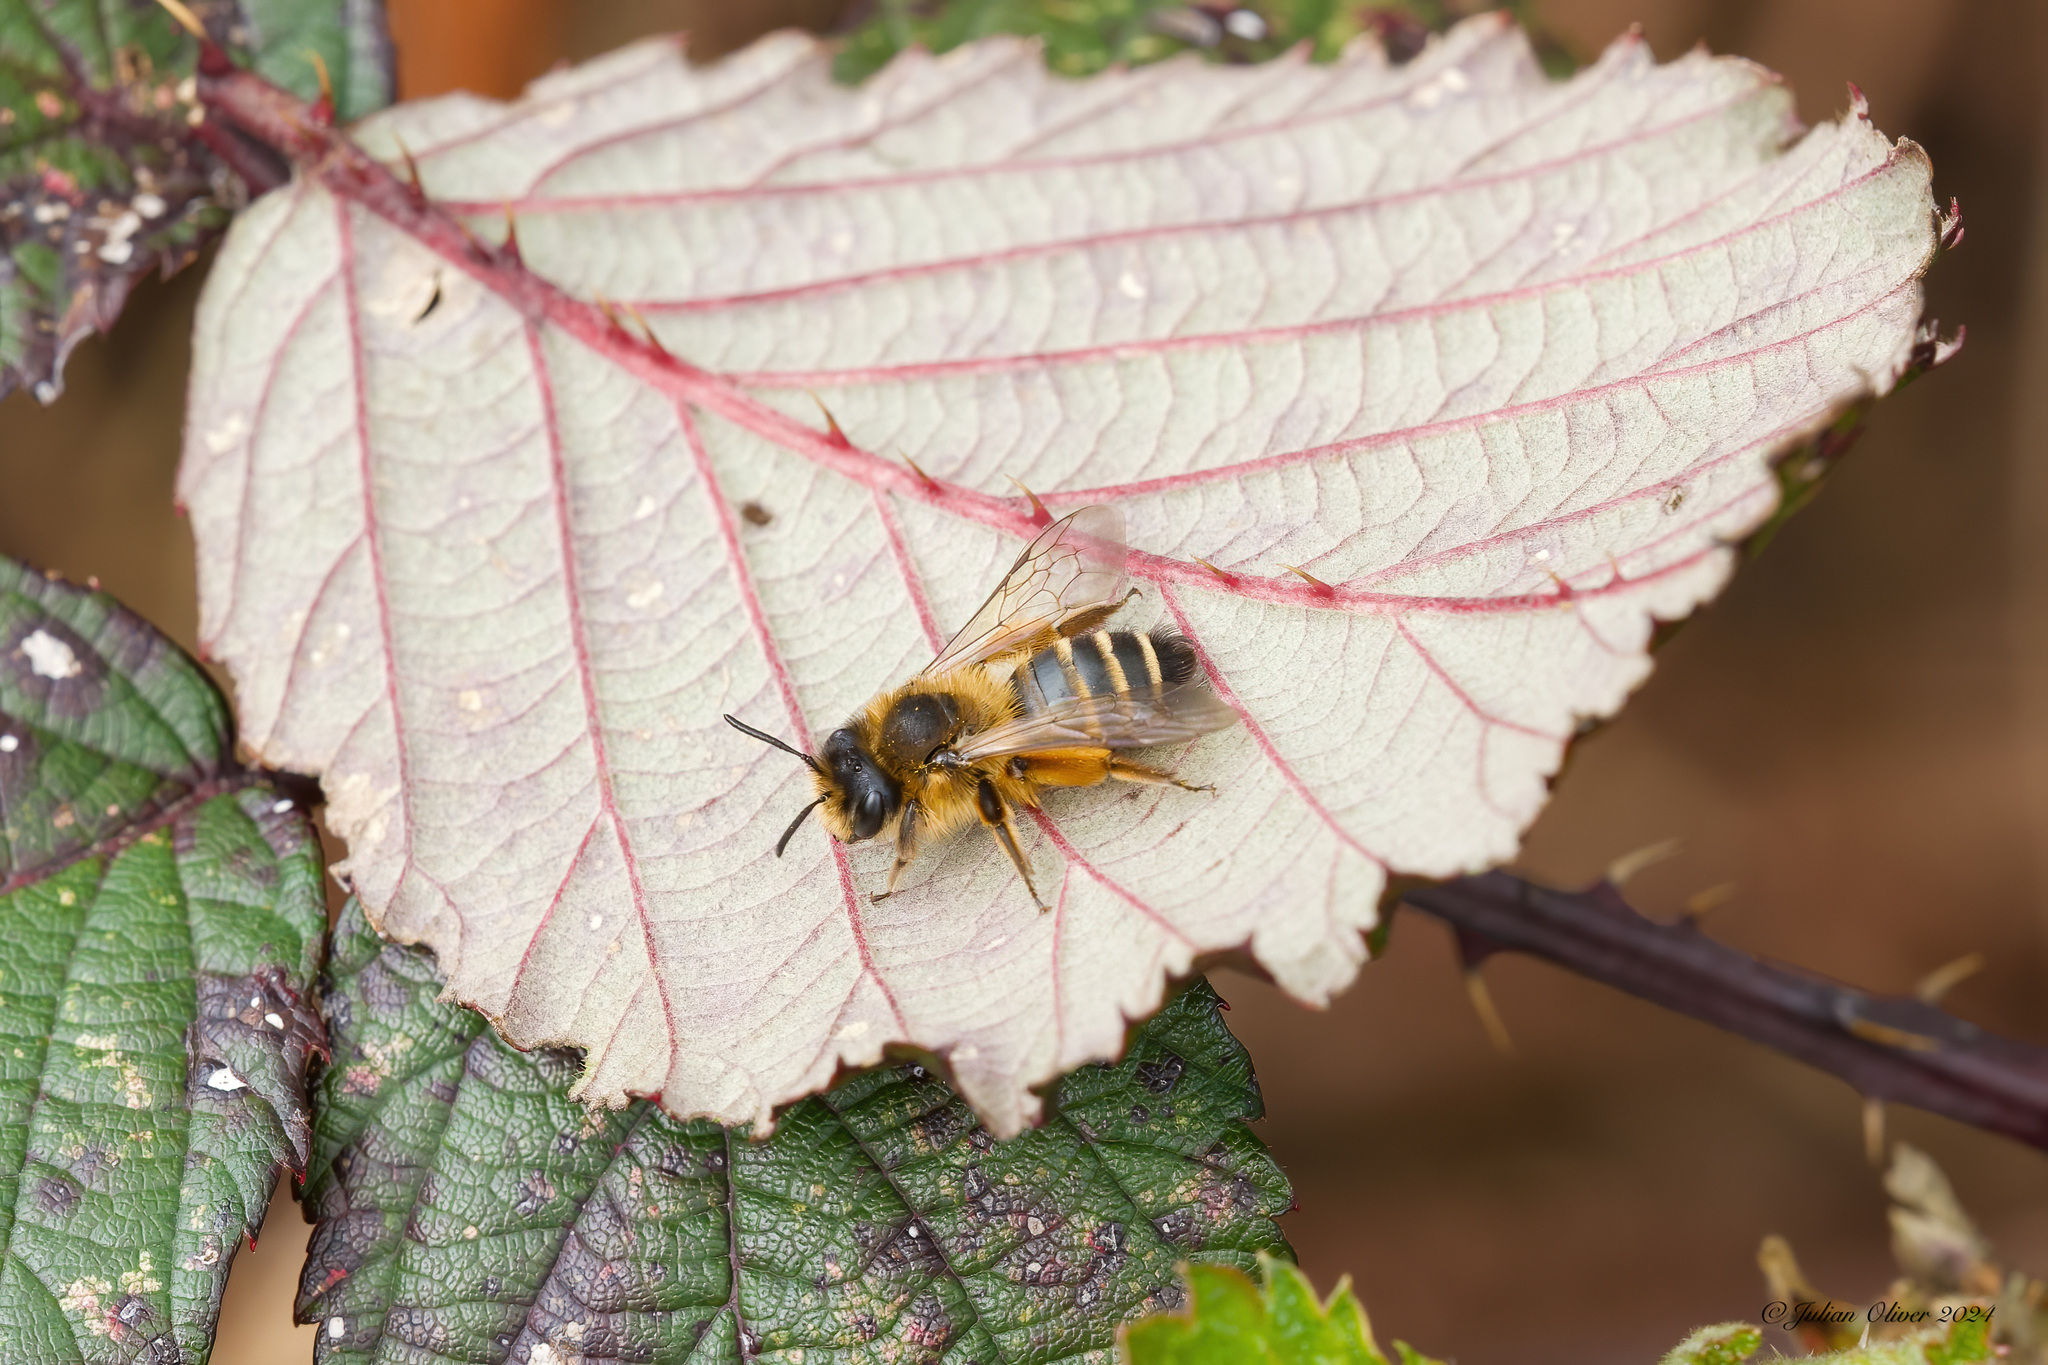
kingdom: Animalia
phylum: Arthropoda
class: Insecta
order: Hymenoptera
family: Andrenidae
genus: Andrena
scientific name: Andrena flavipes
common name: Yellow-legged mining bee
